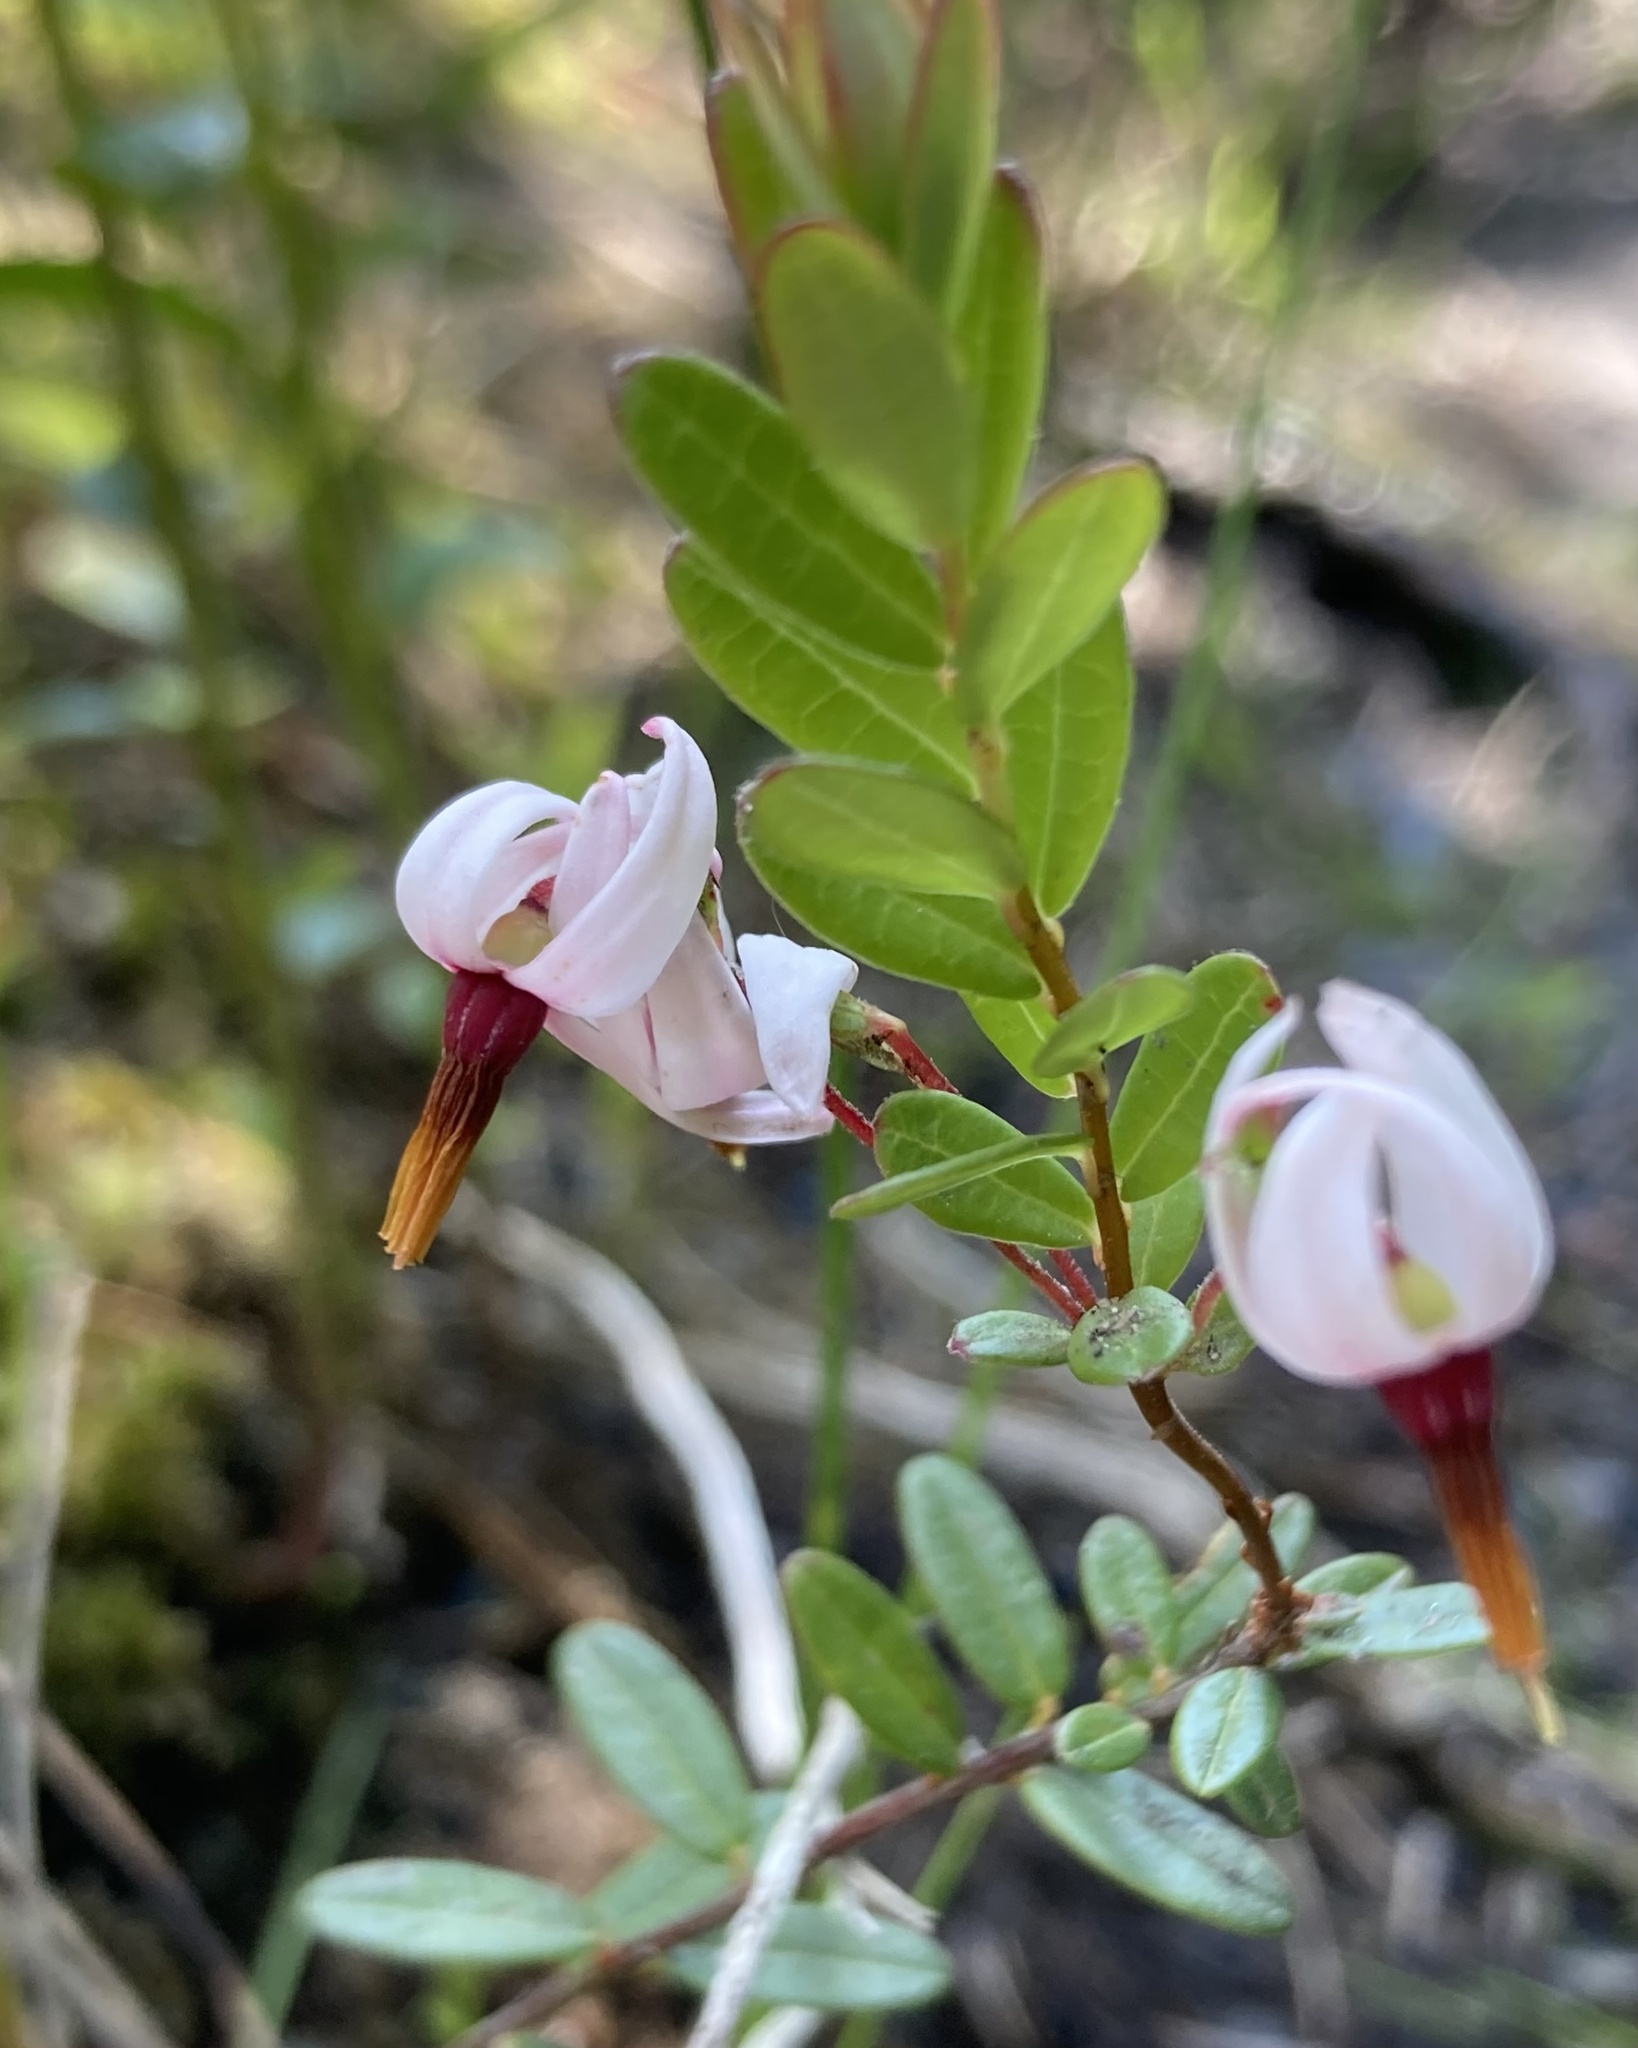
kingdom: Plantae
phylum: Tracheophyta
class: Magnoliopsida
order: Ericales
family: Ericaceae
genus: Vaccinium
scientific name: Vaccinium macrocarpon
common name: American cranberry
